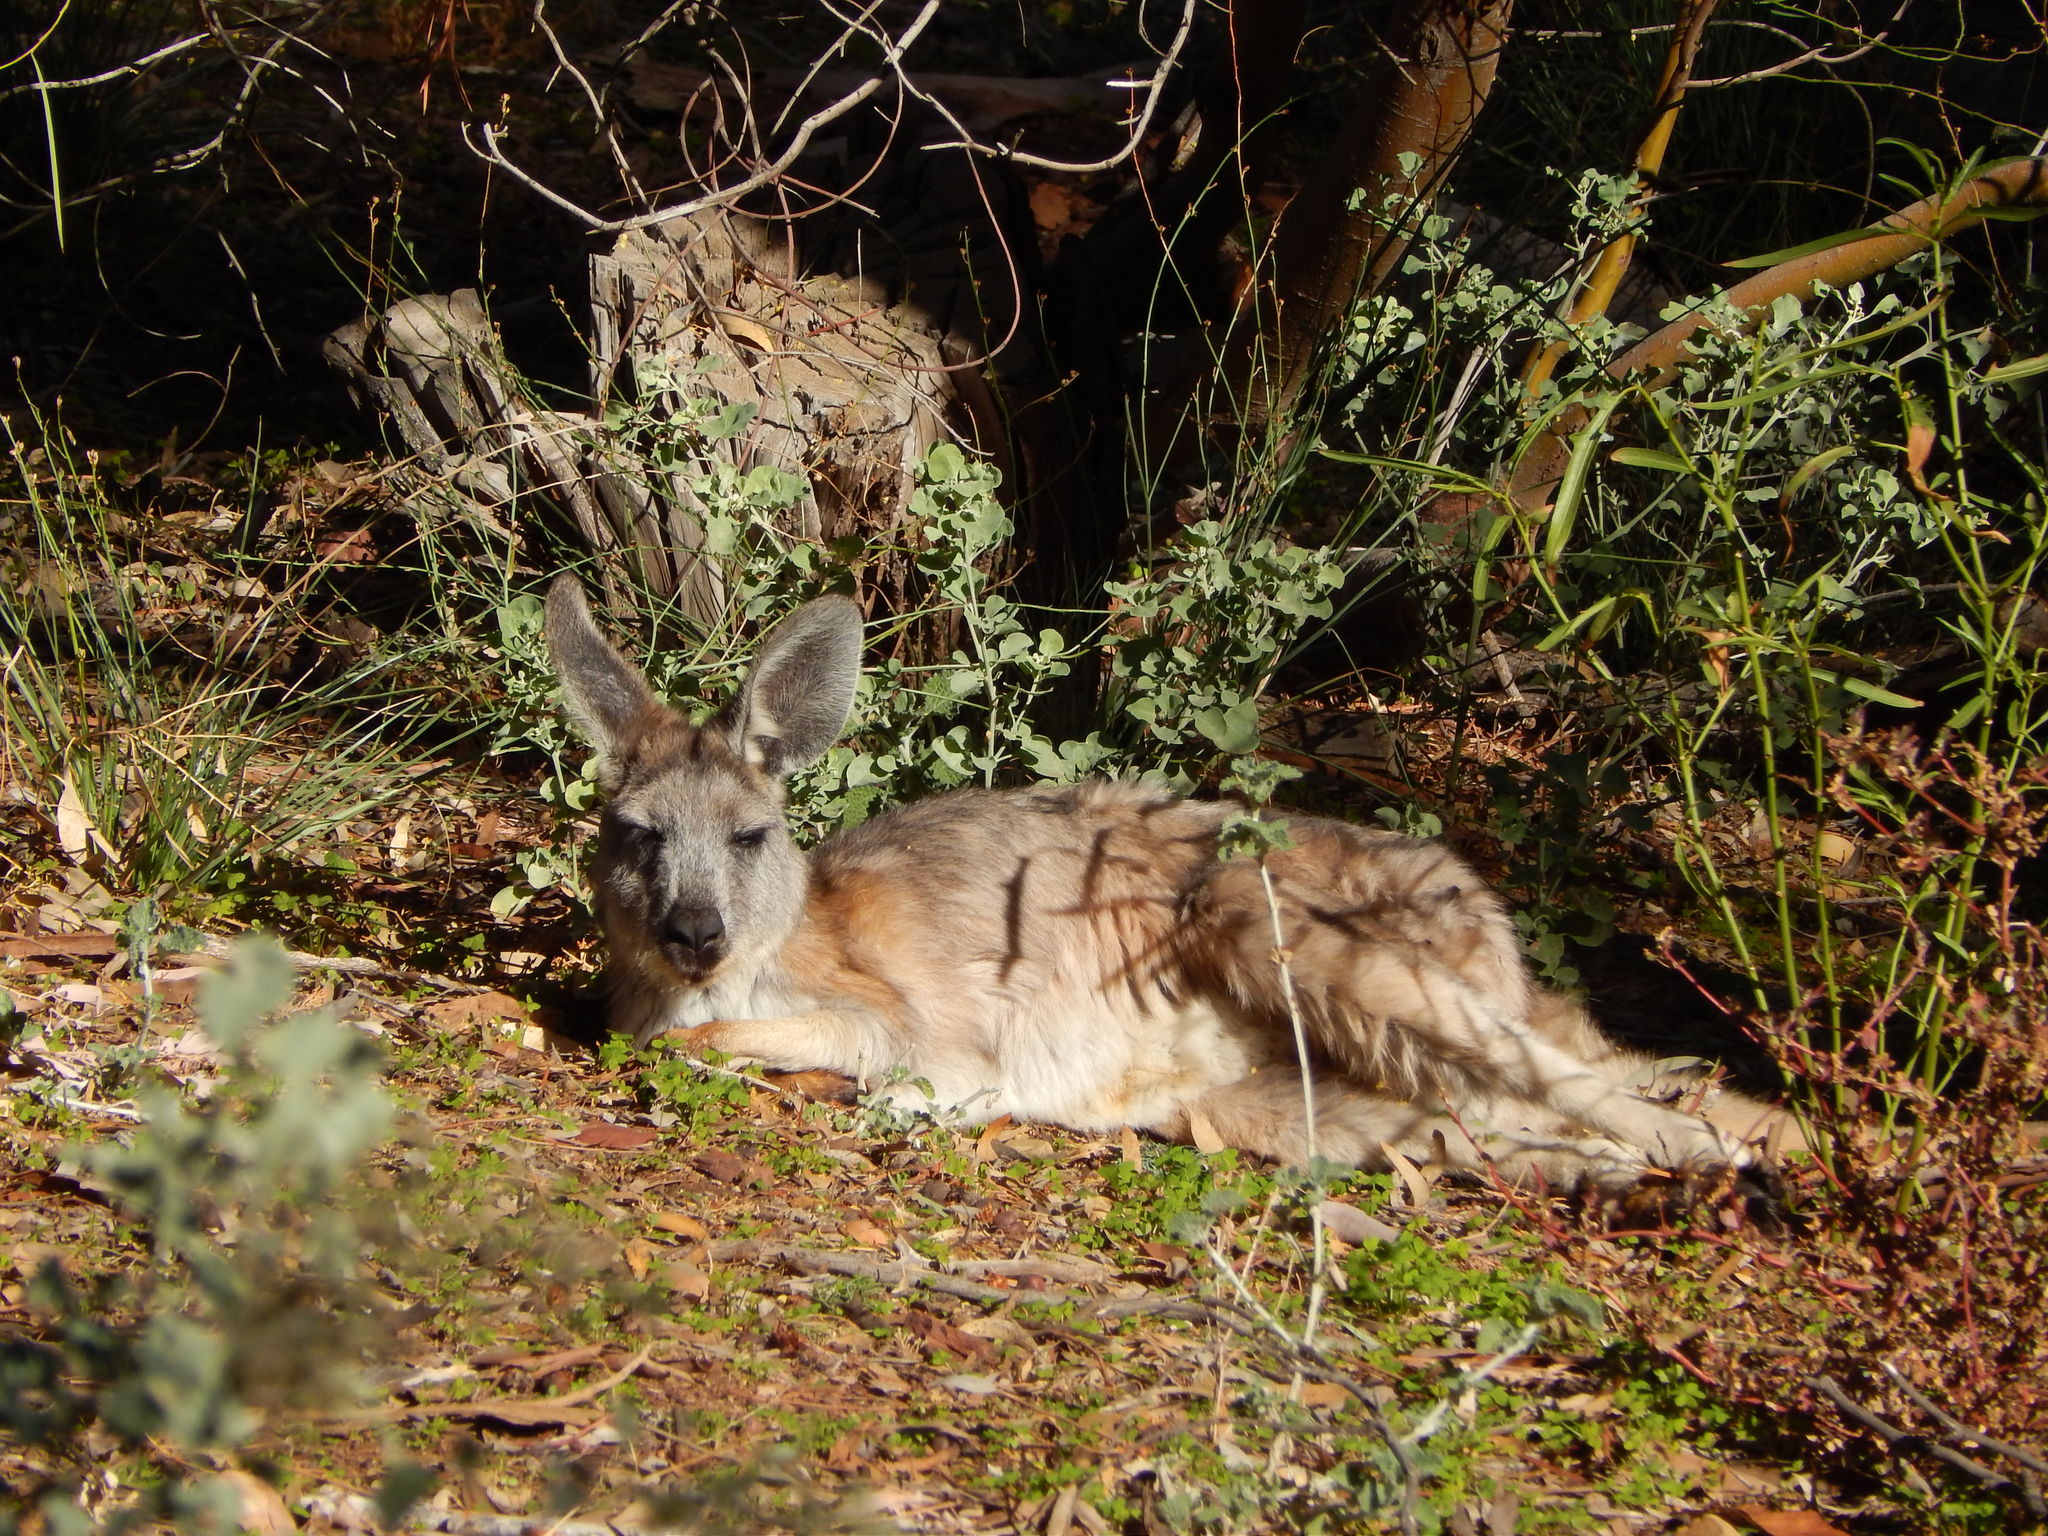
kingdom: Animalia
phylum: Chordata
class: Mammalia
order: Diprotodontia
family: Macropodidae
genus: Macropus
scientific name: Macropus robustus
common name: Eastern wallaroo
